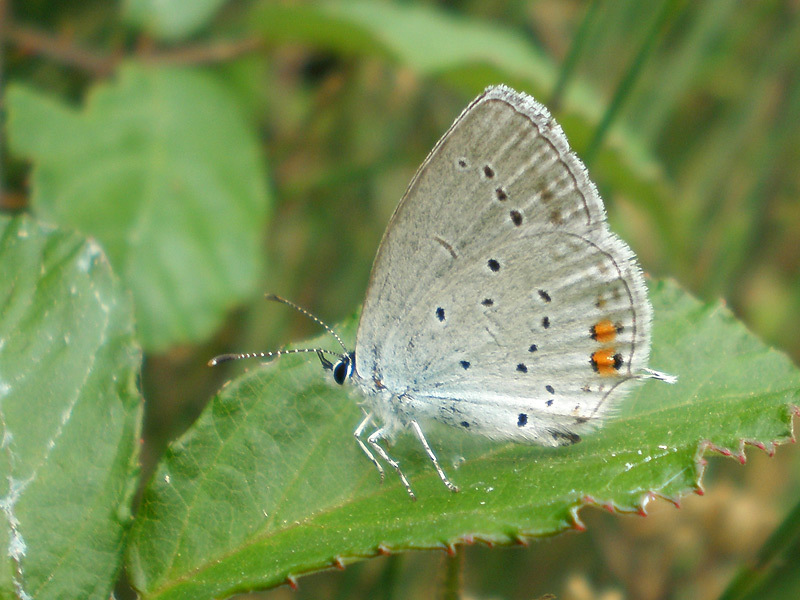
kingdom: Animalia
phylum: Arthropoda
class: Insecta
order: Lepidoptera
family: Lycaenidae
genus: Elkalyce
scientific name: Elkalyce argiades
